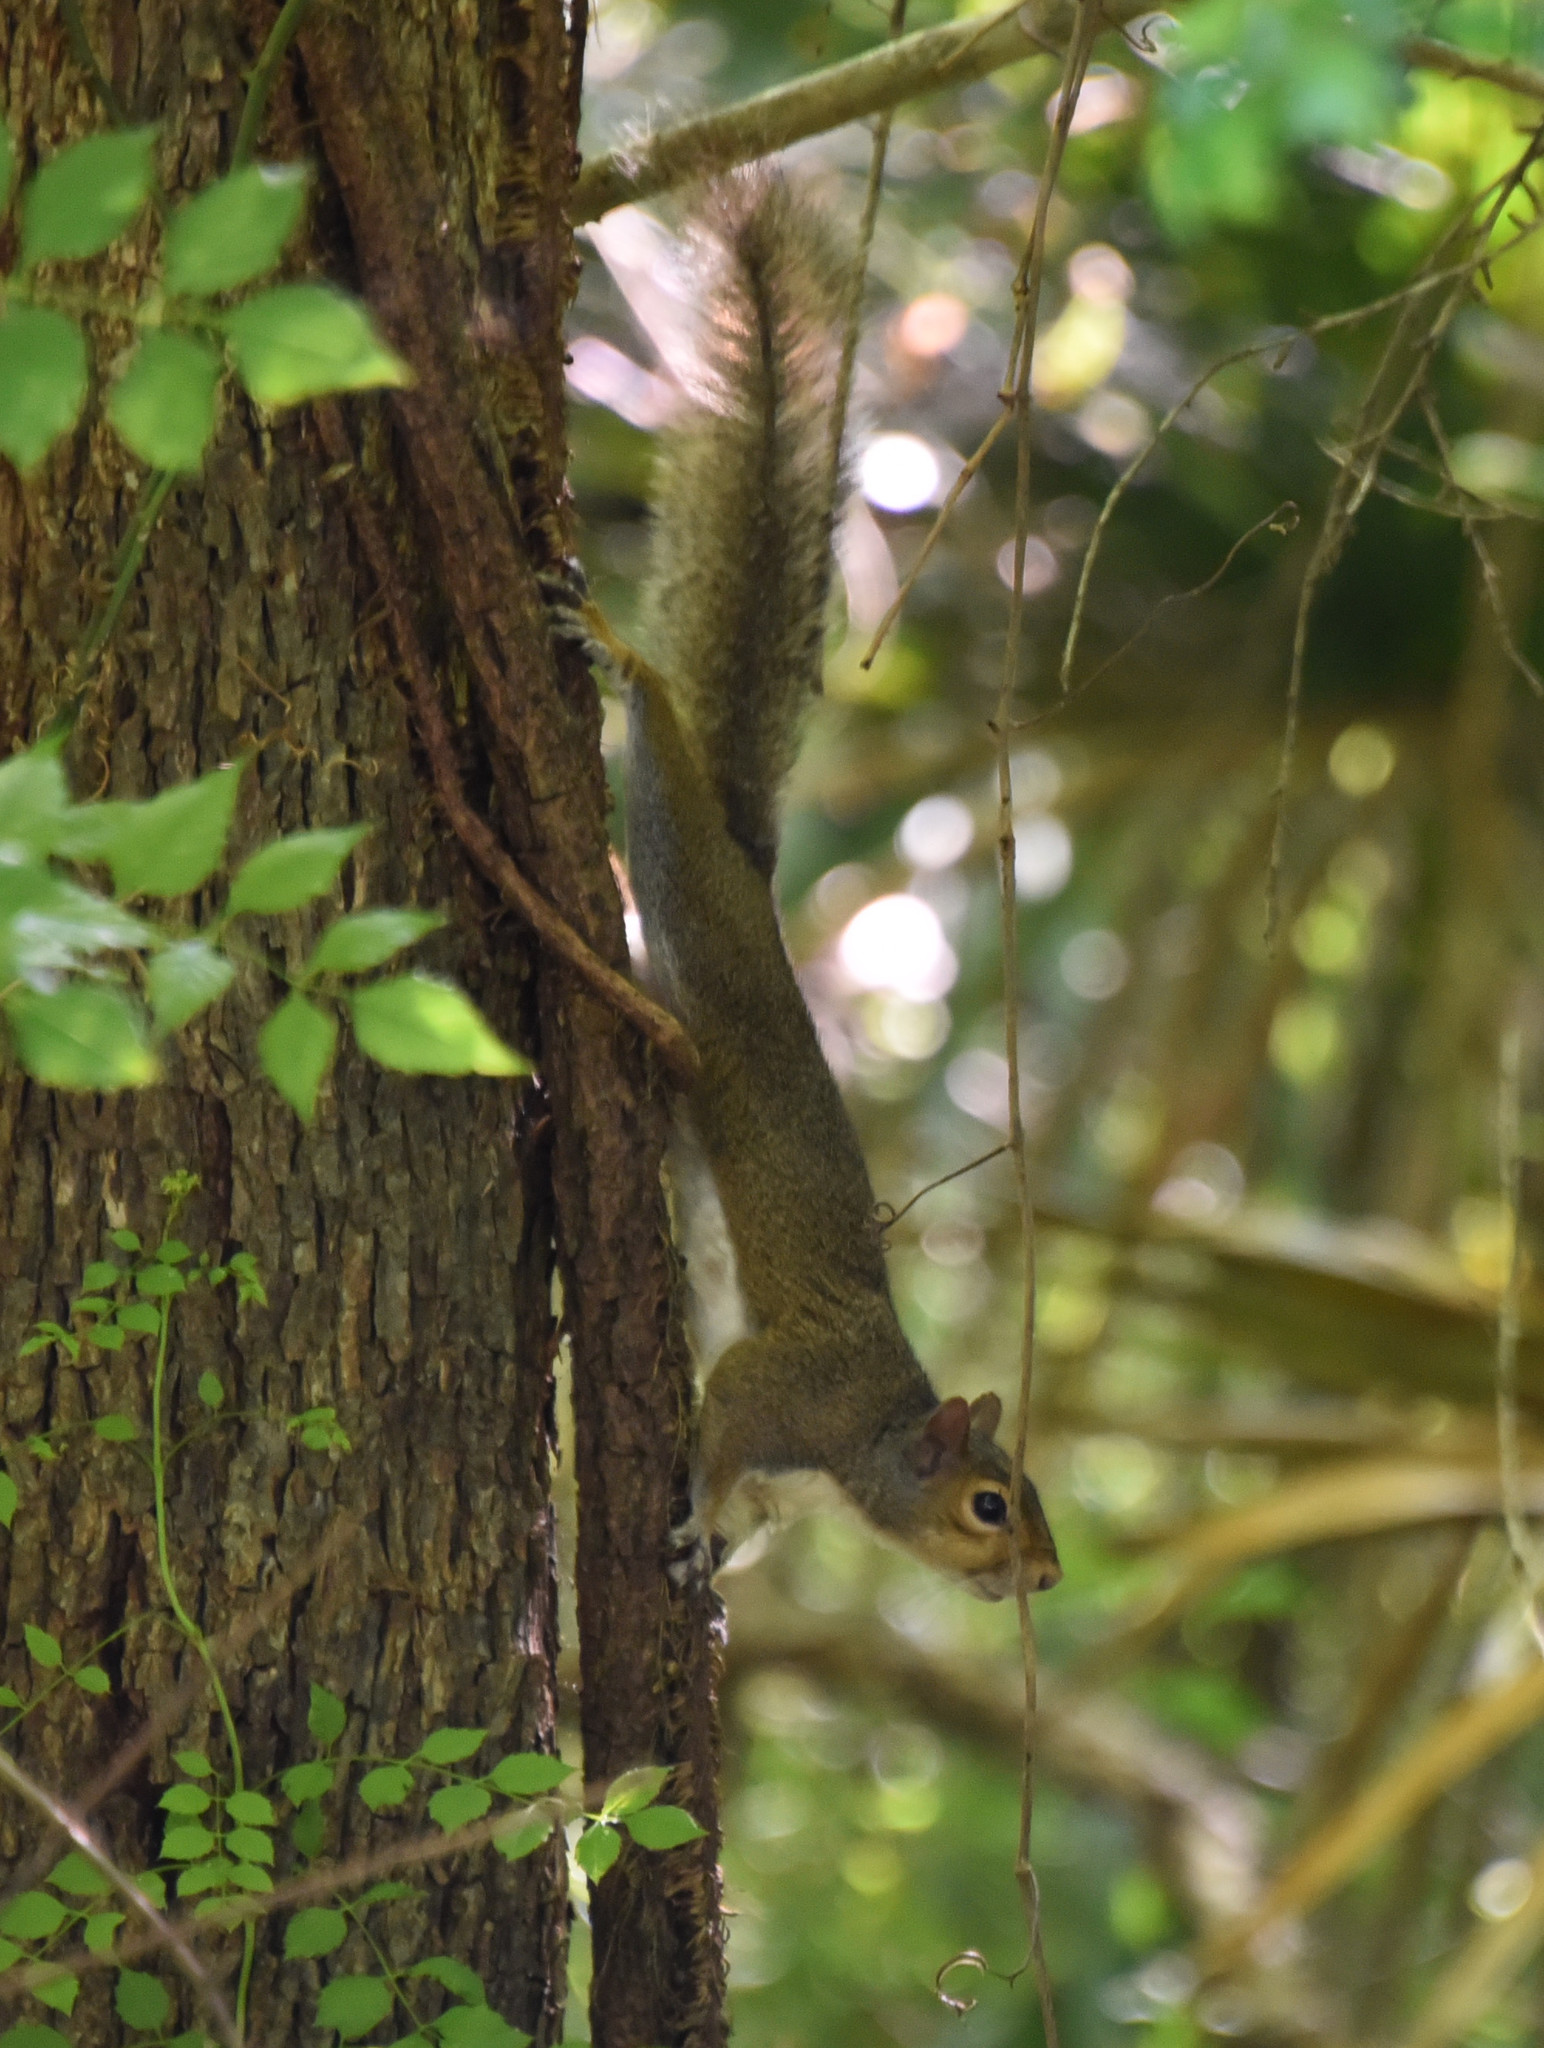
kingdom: Animalia
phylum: Chordata
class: Mammalia
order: Rodentia
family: Sciuridae
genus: Sciurus
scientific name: Sciurus carolinensis
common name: Eastern gray squirrel
